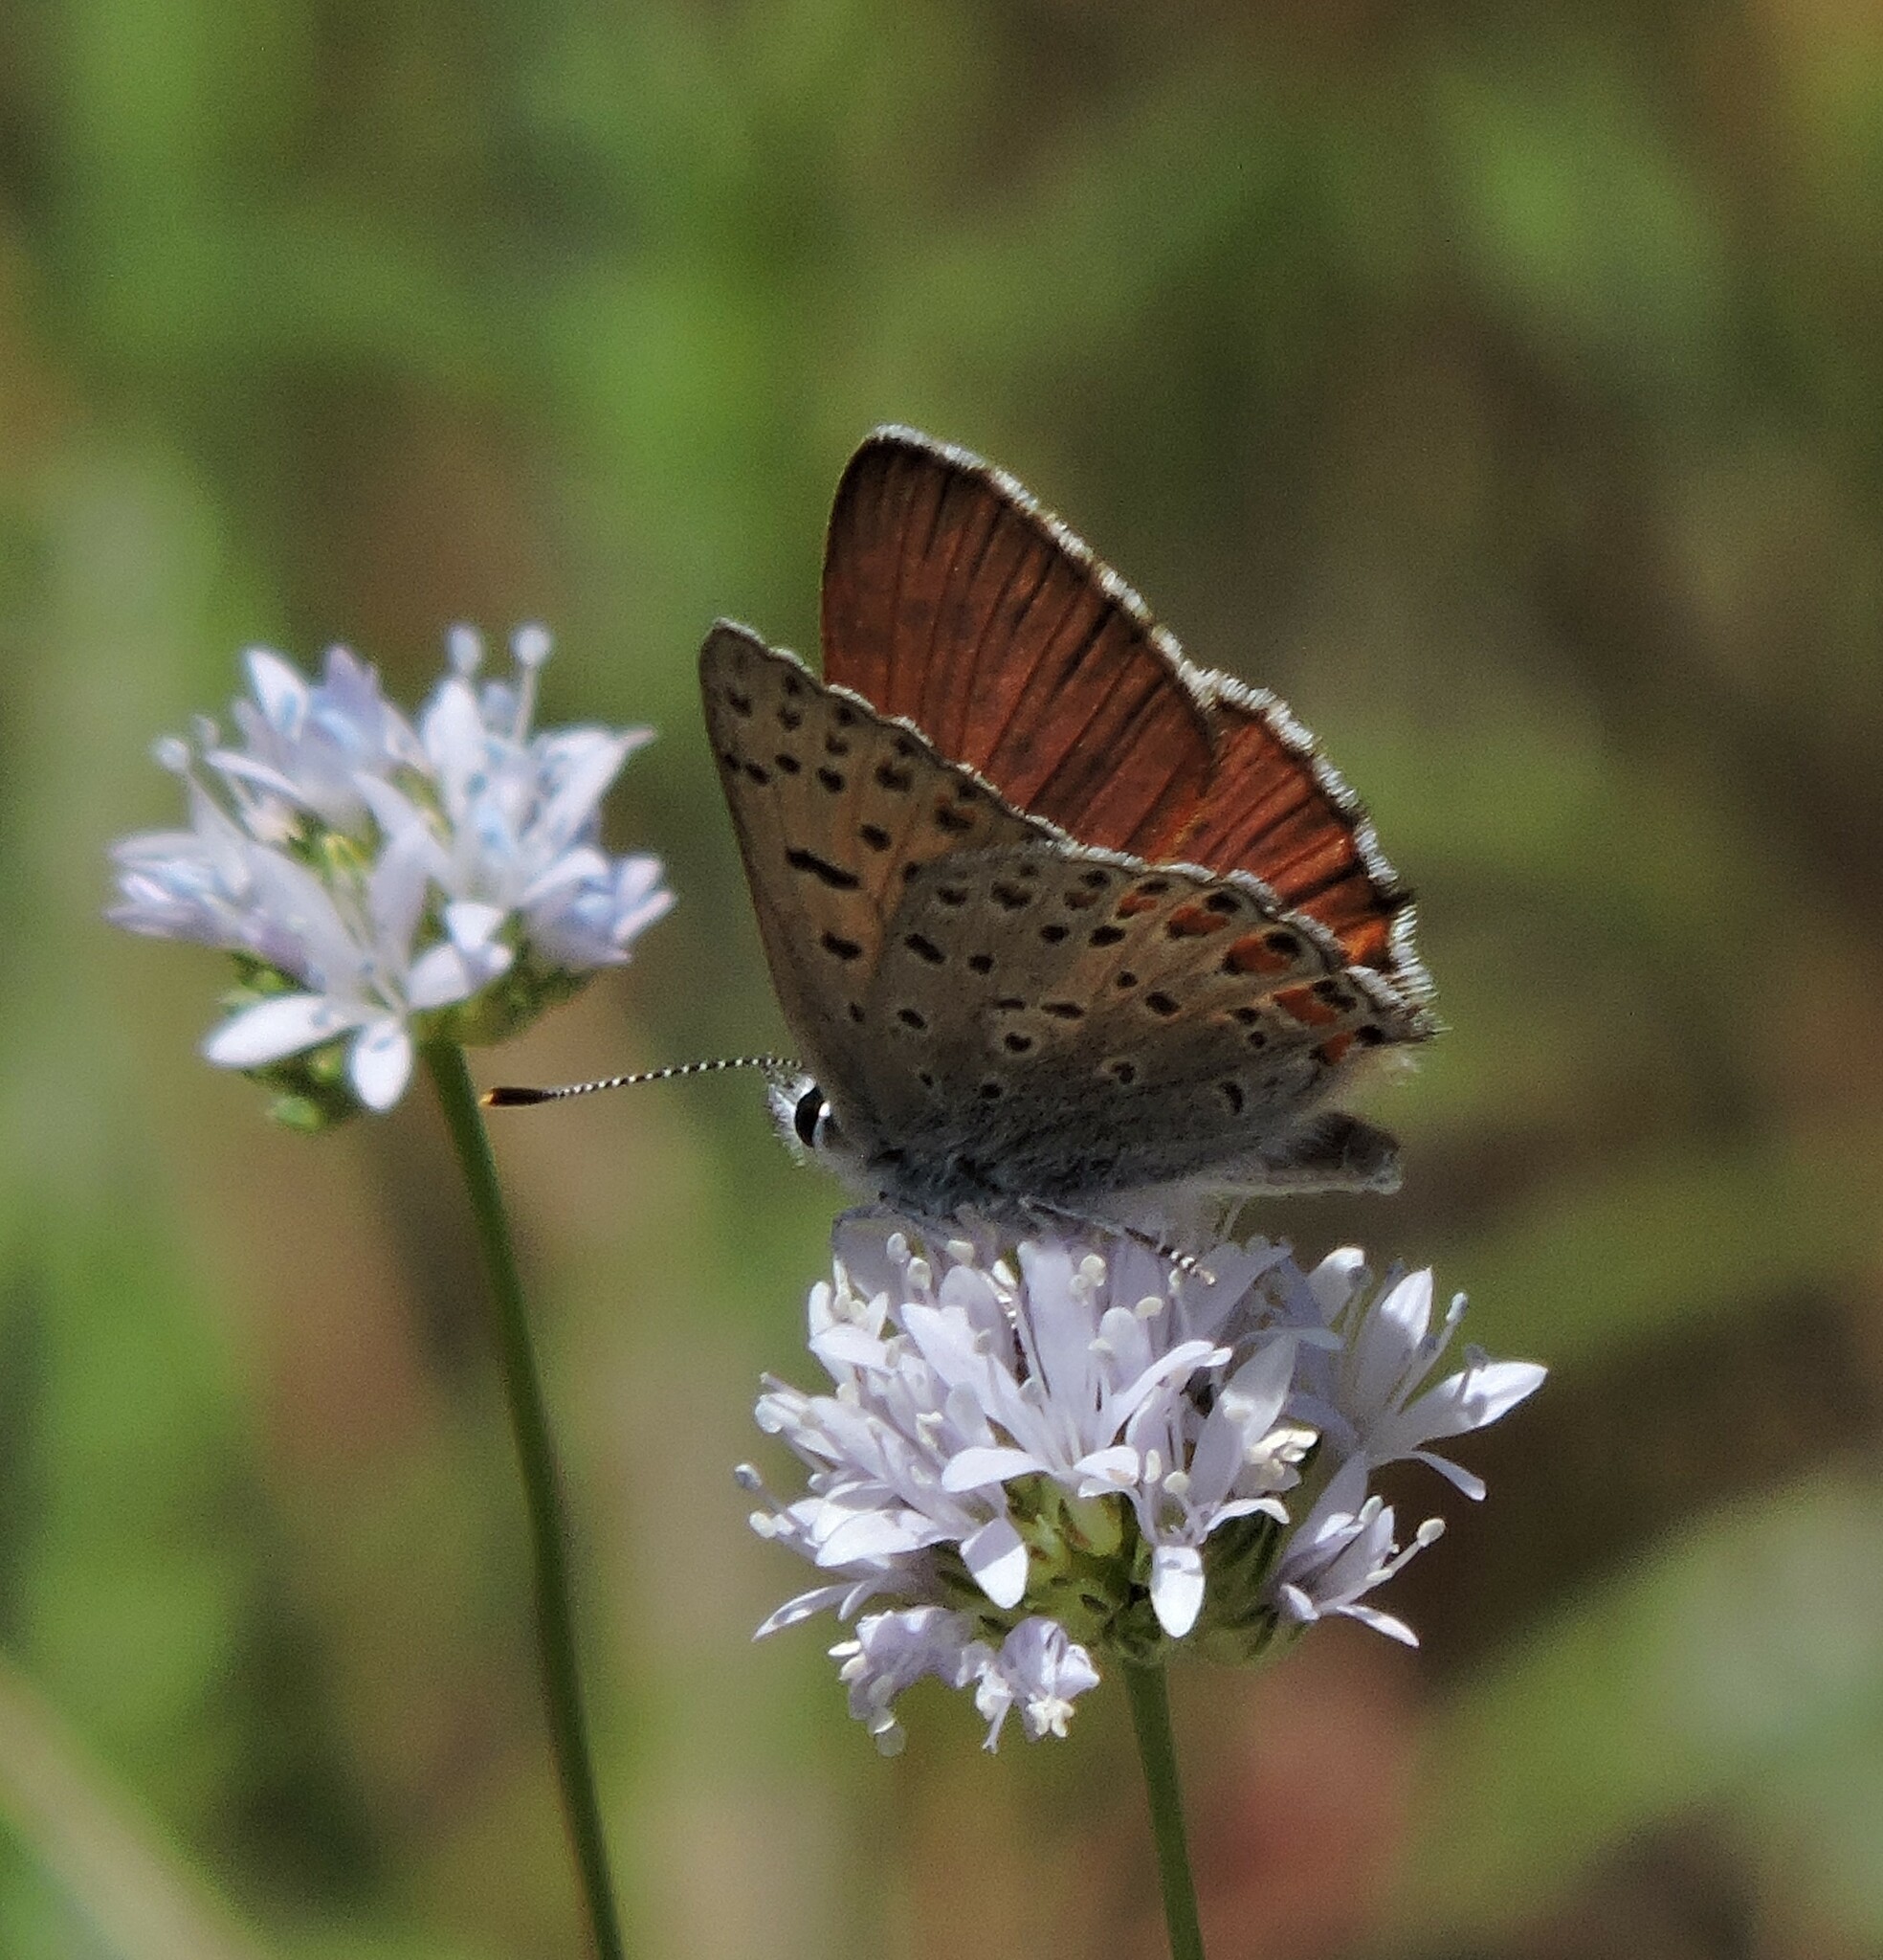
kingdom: Animalia
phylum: Arthropoda
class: Insecta
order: Lepidoptera
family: Lycaenidae
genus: Tharsalea
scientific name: Tharsalea gorgon
